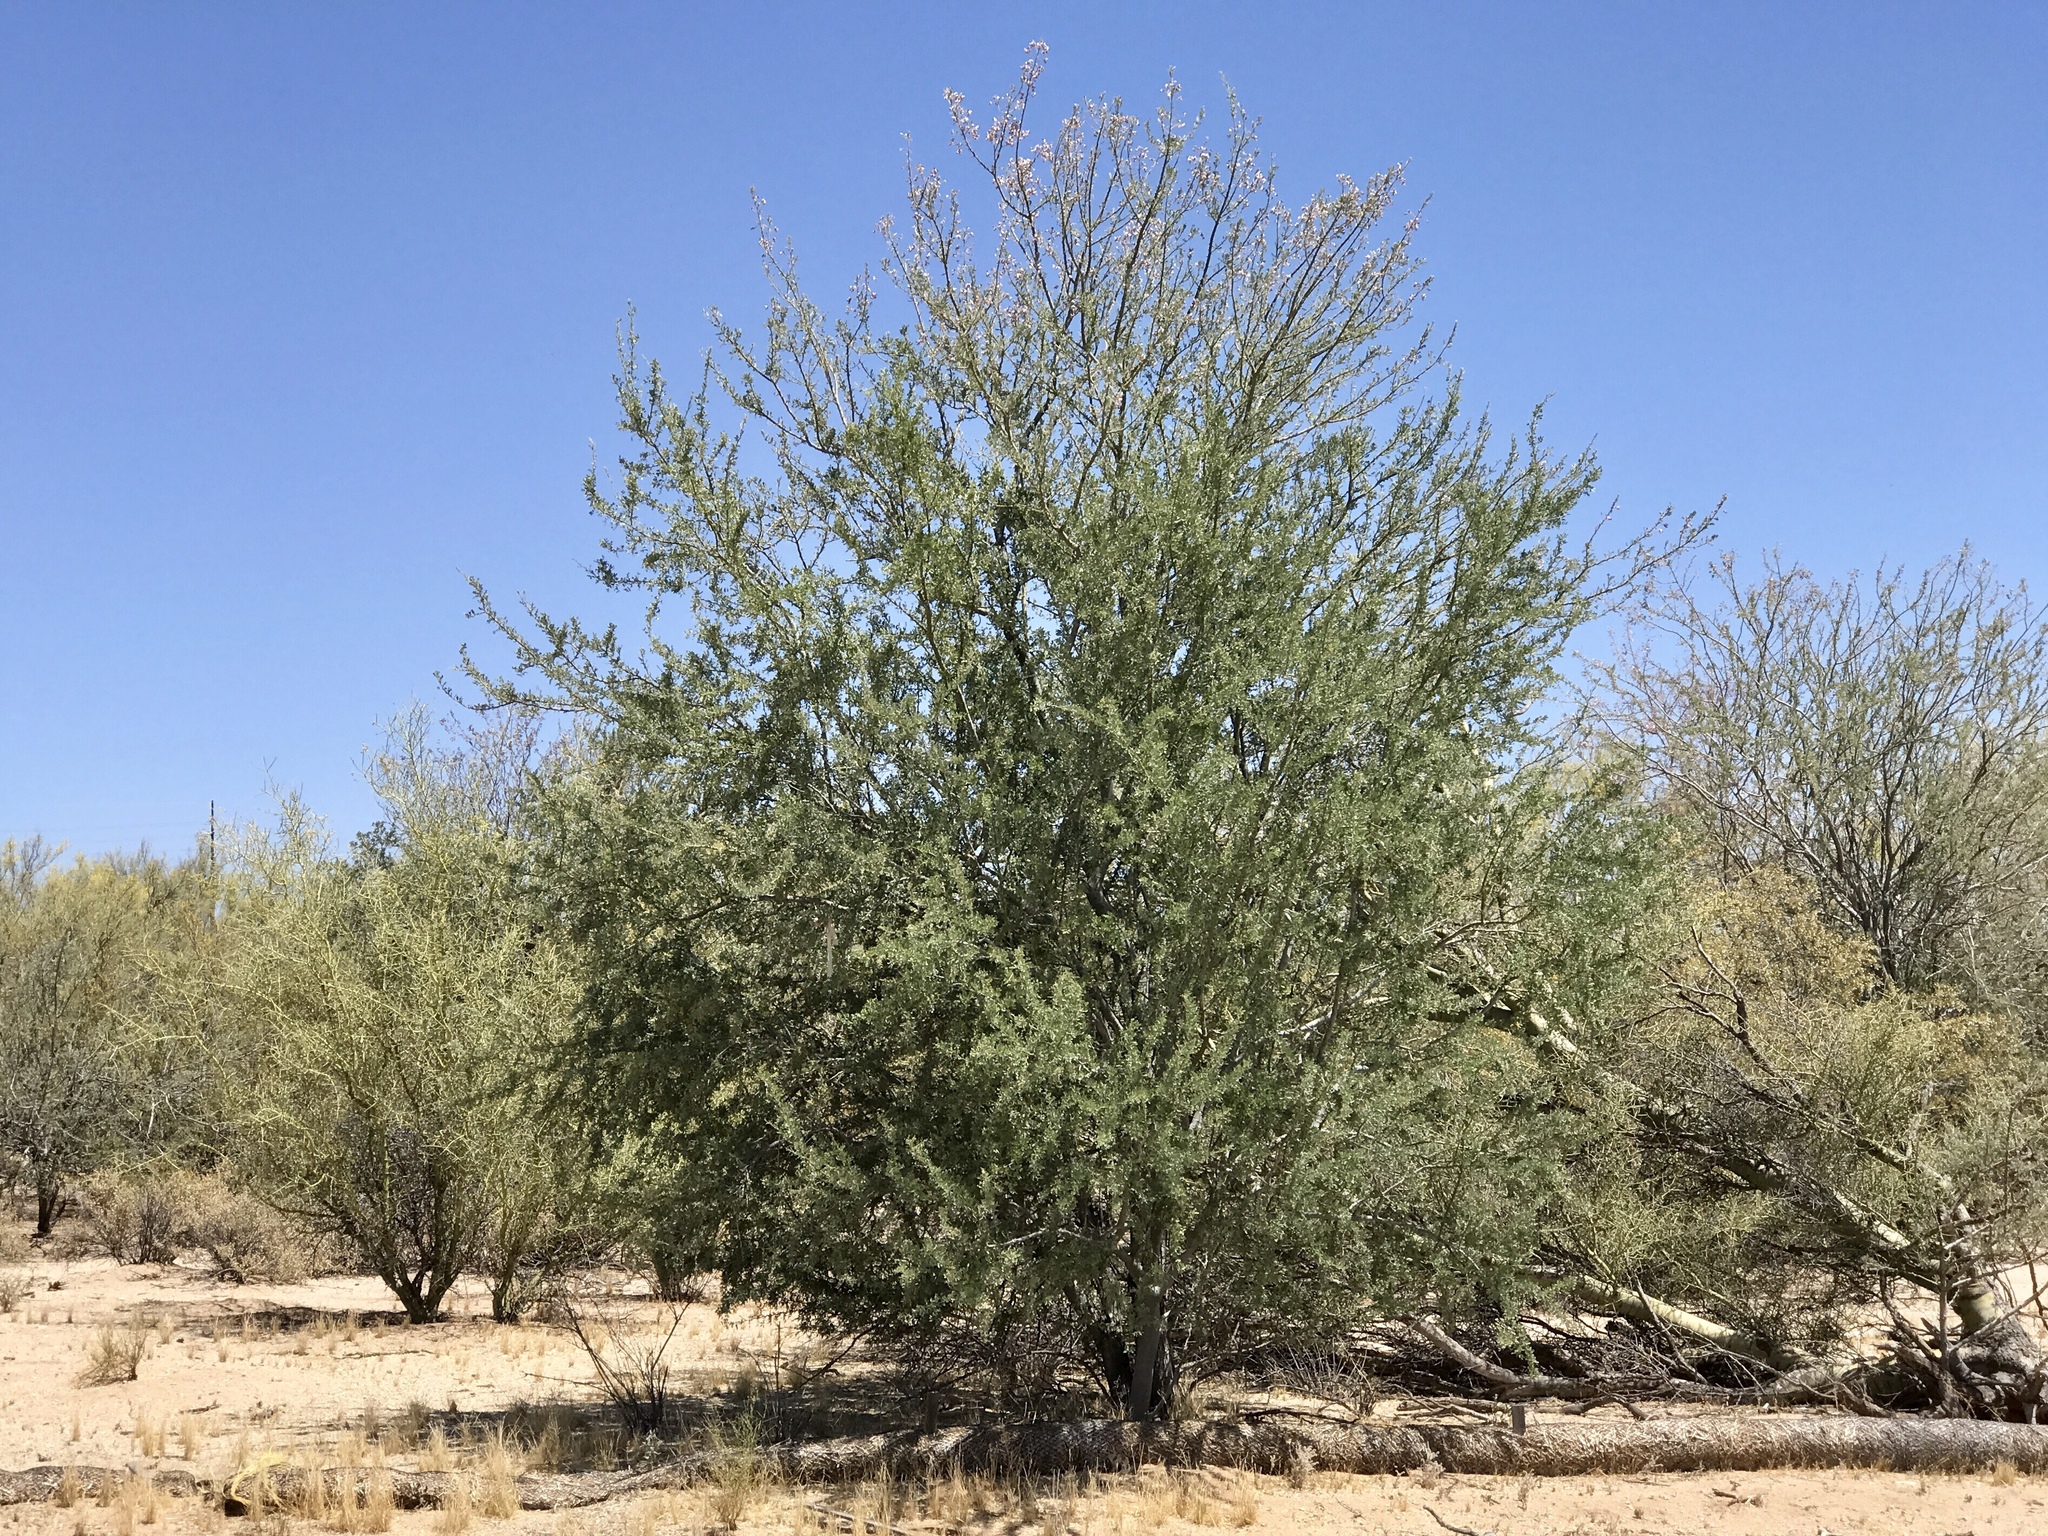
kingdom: Plantae
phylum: Tracheophyta
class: Magnoliopsida
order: Fabales
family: Fabaceae
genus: Olneya
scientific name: Olneya tesota
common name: Desert ironwood
